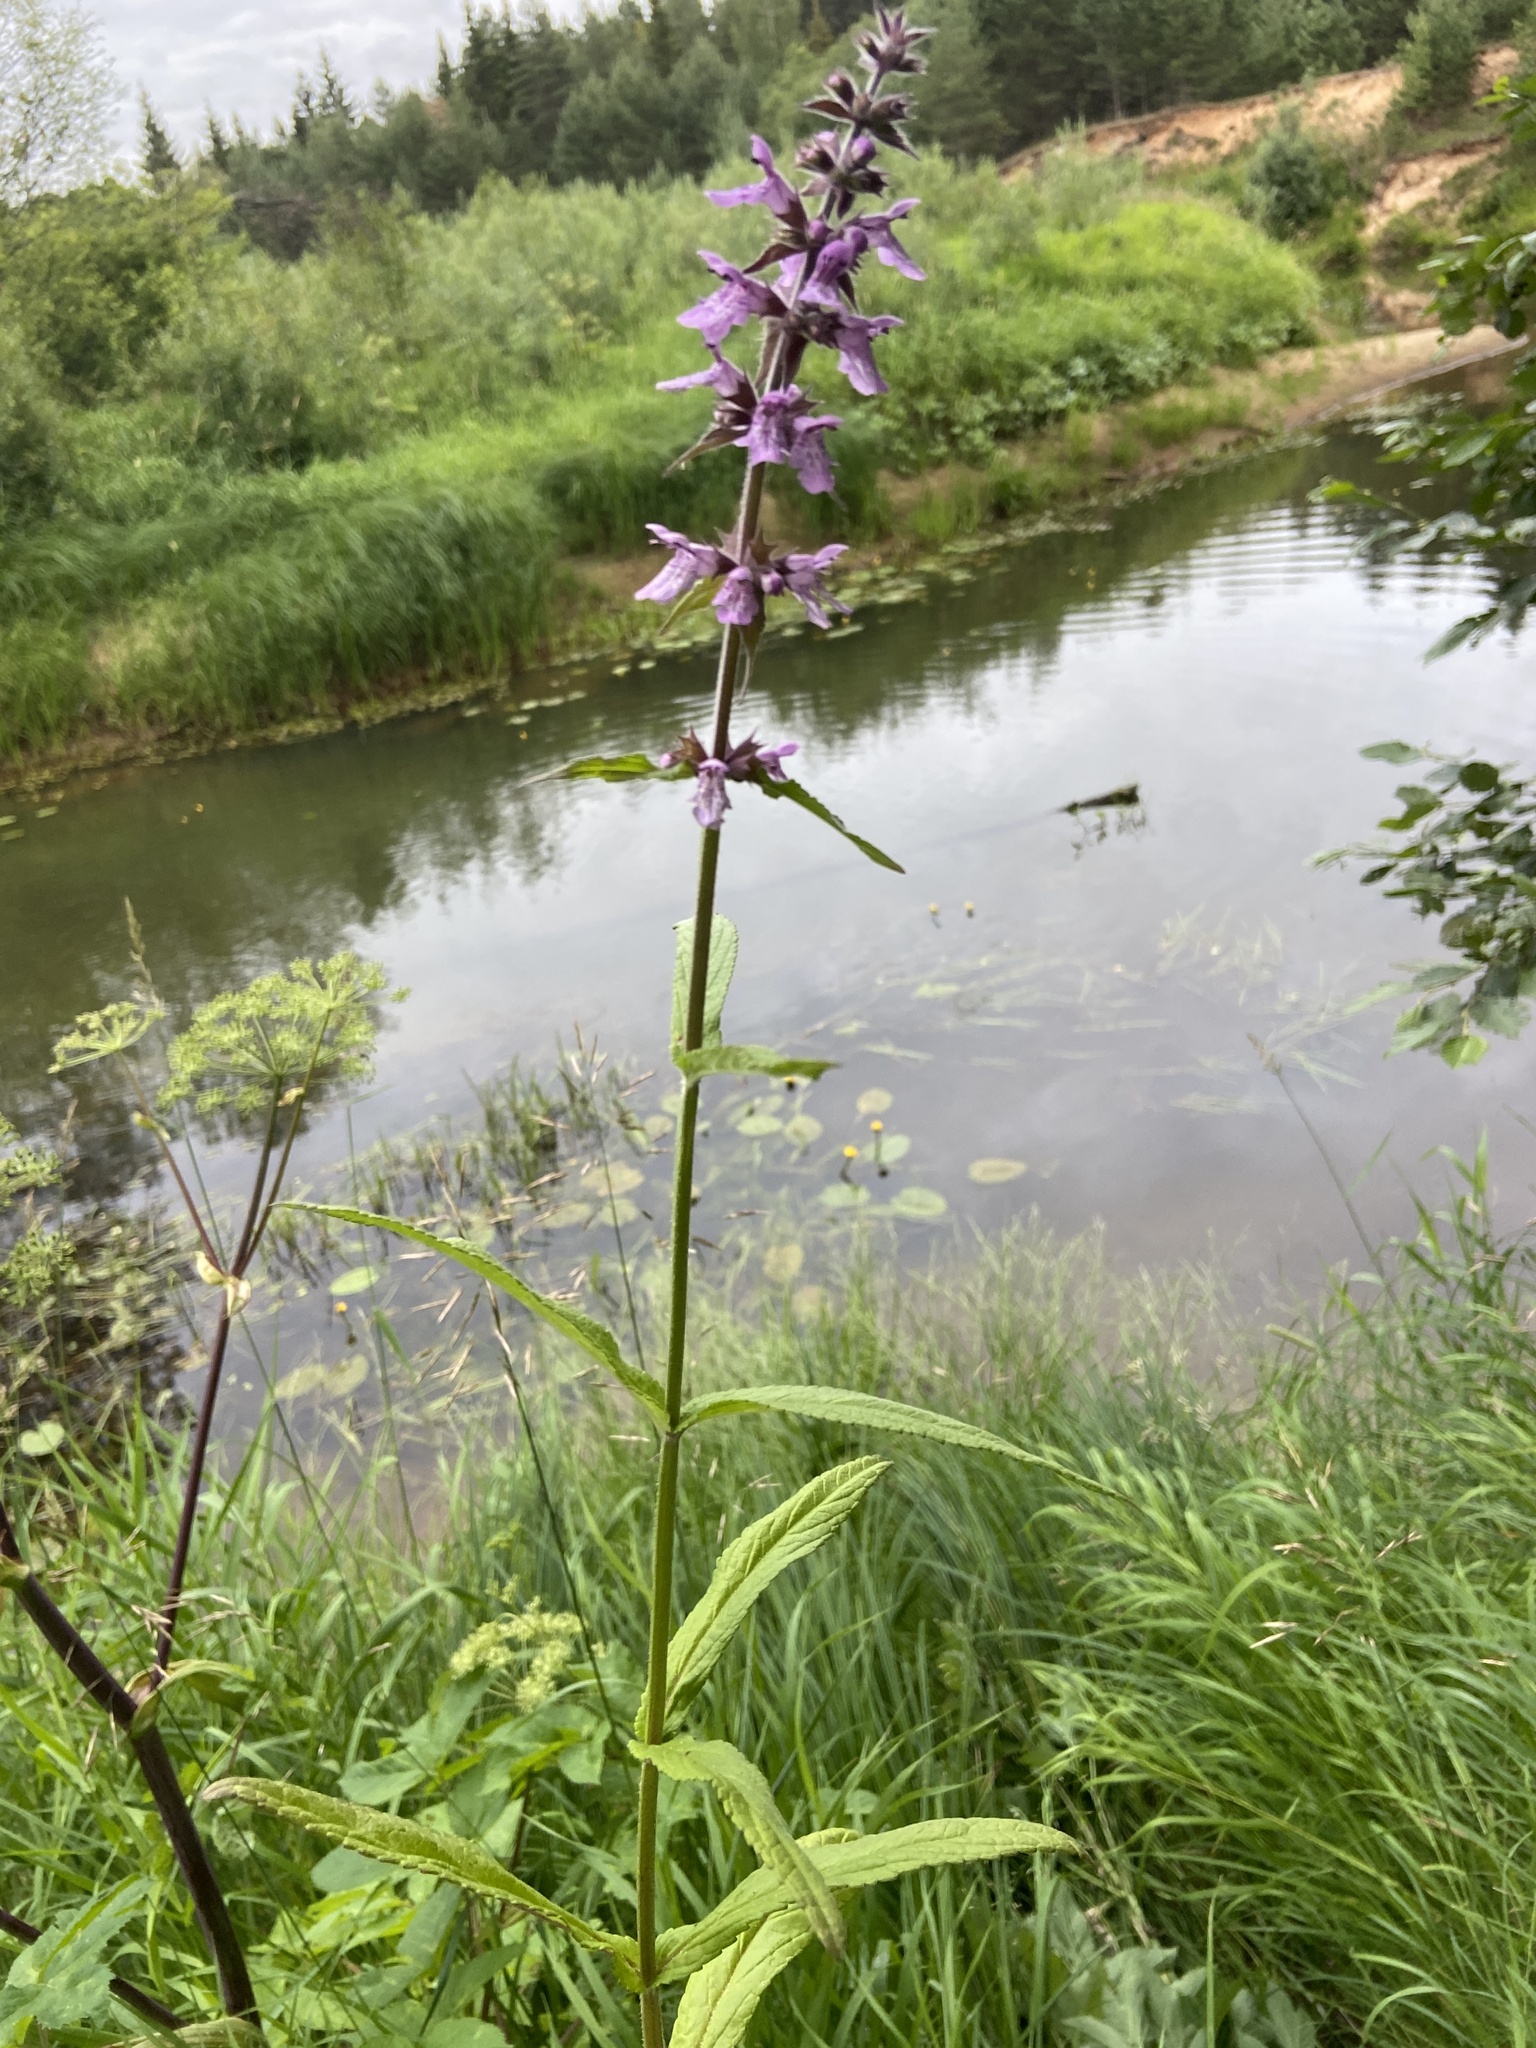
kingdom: Plantae
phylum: Tracheophyta
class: Magnoliopsida
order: Lamiales
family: Lamiaceae
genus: Stachys
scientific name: Stachys palustris
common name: Marsh woundwort
